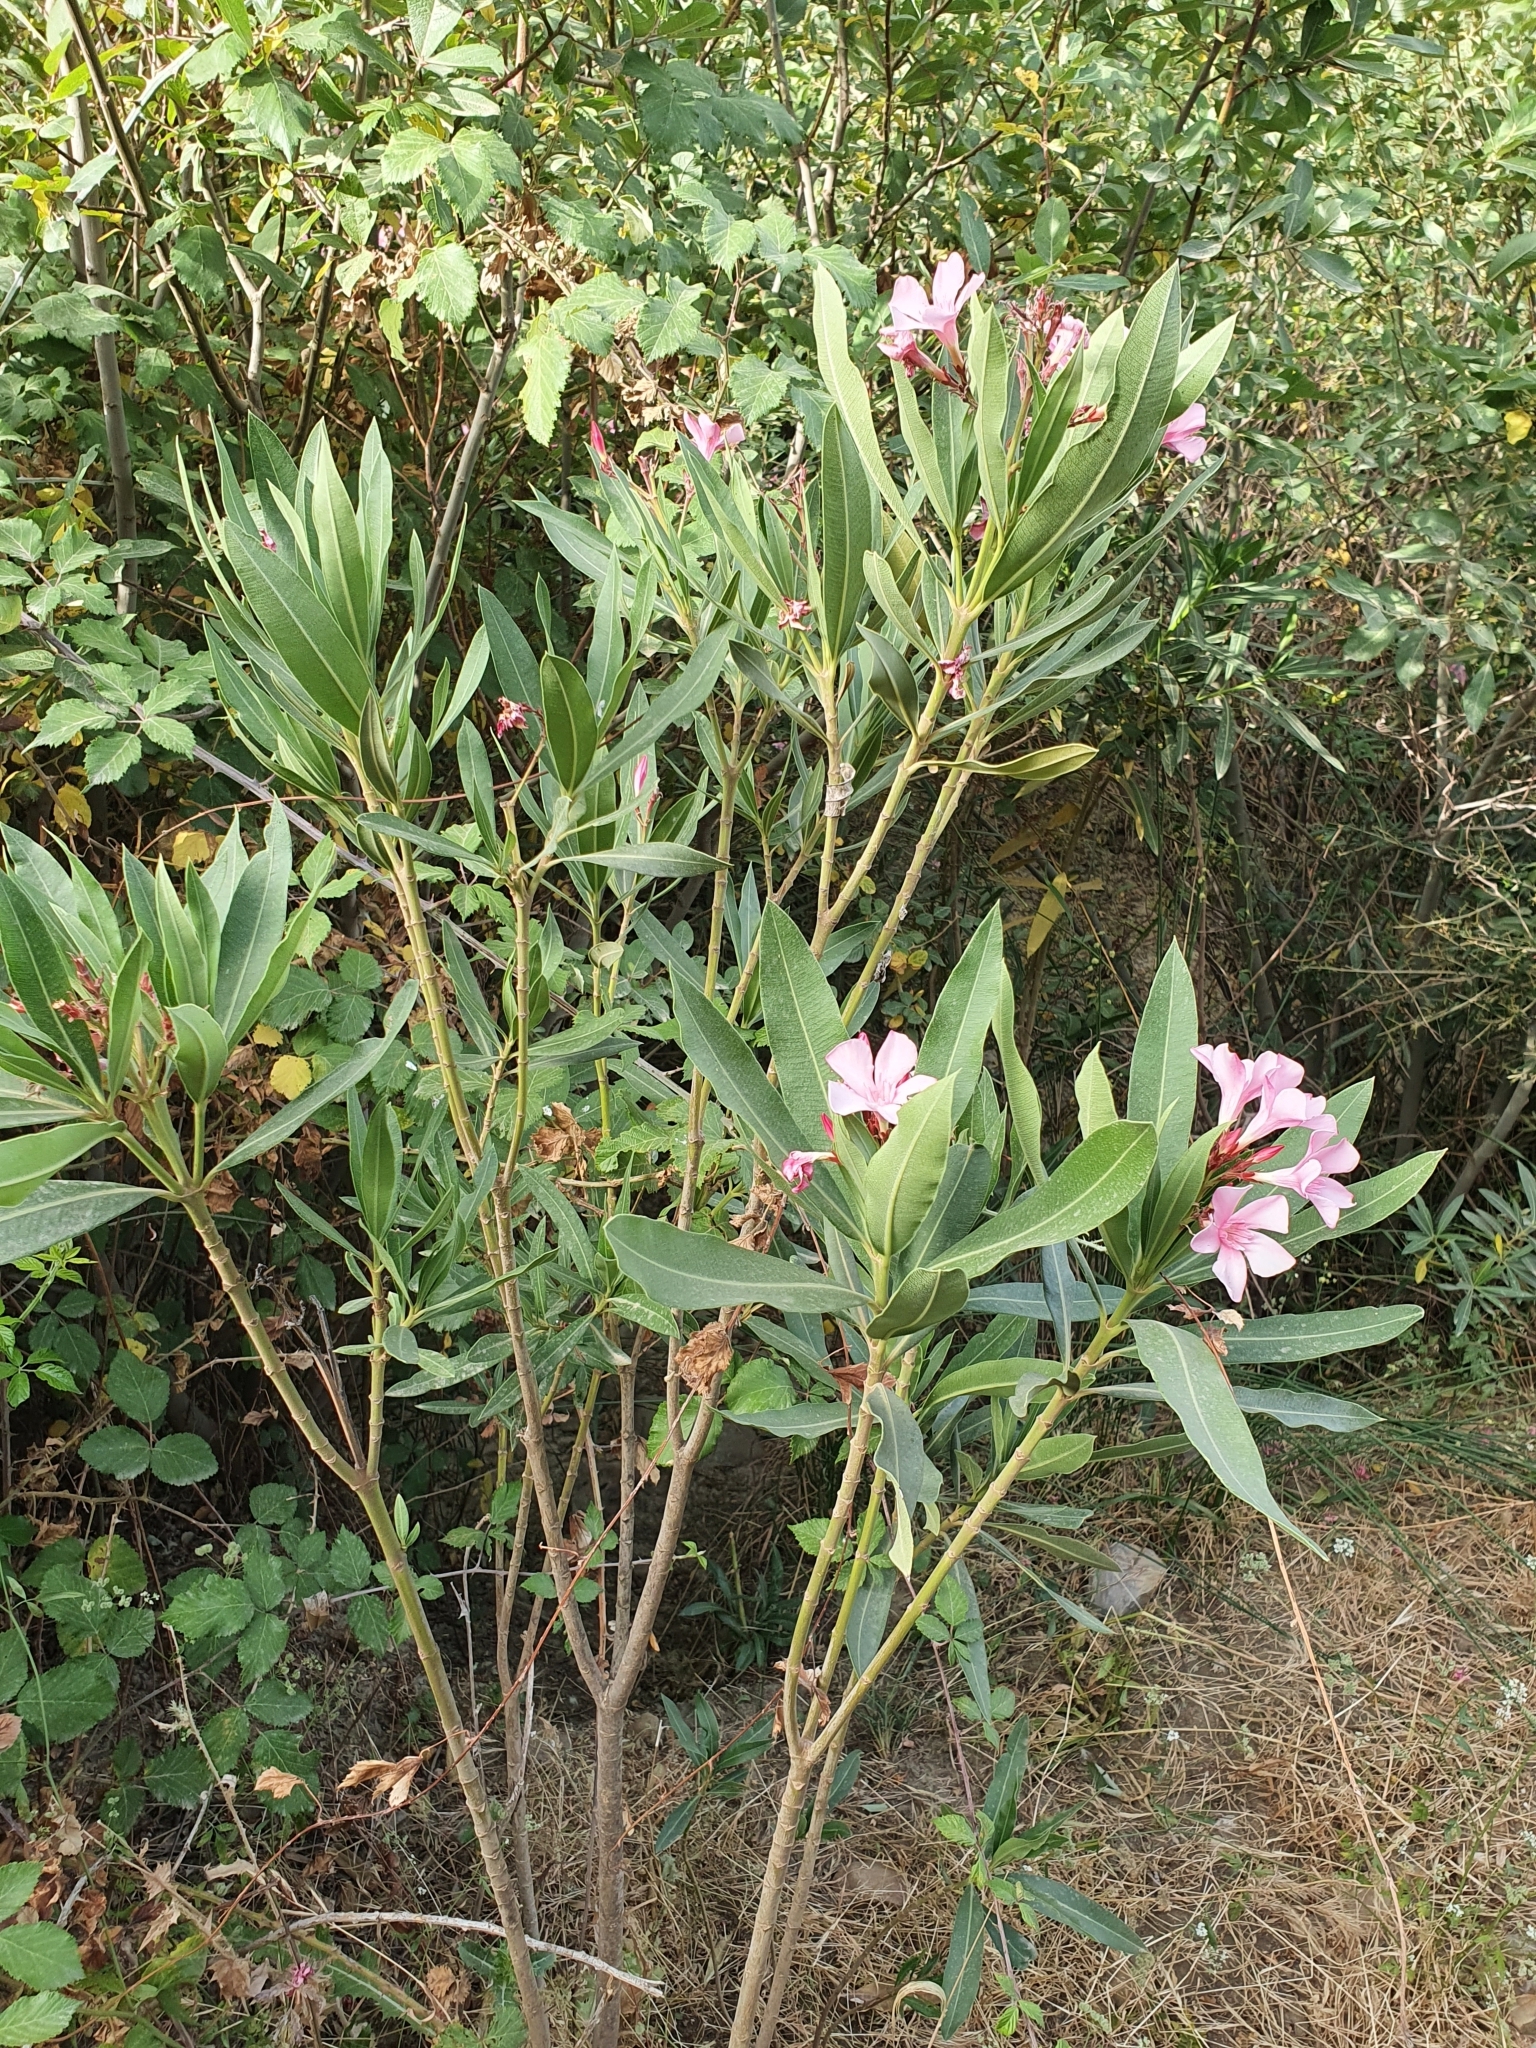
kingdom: Plantae
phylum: Tracheophyta
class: Magnoliopsida
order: Gentianales
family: Apocynaceae
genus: Nerium
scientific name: Nerium oleander
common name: Oleander
